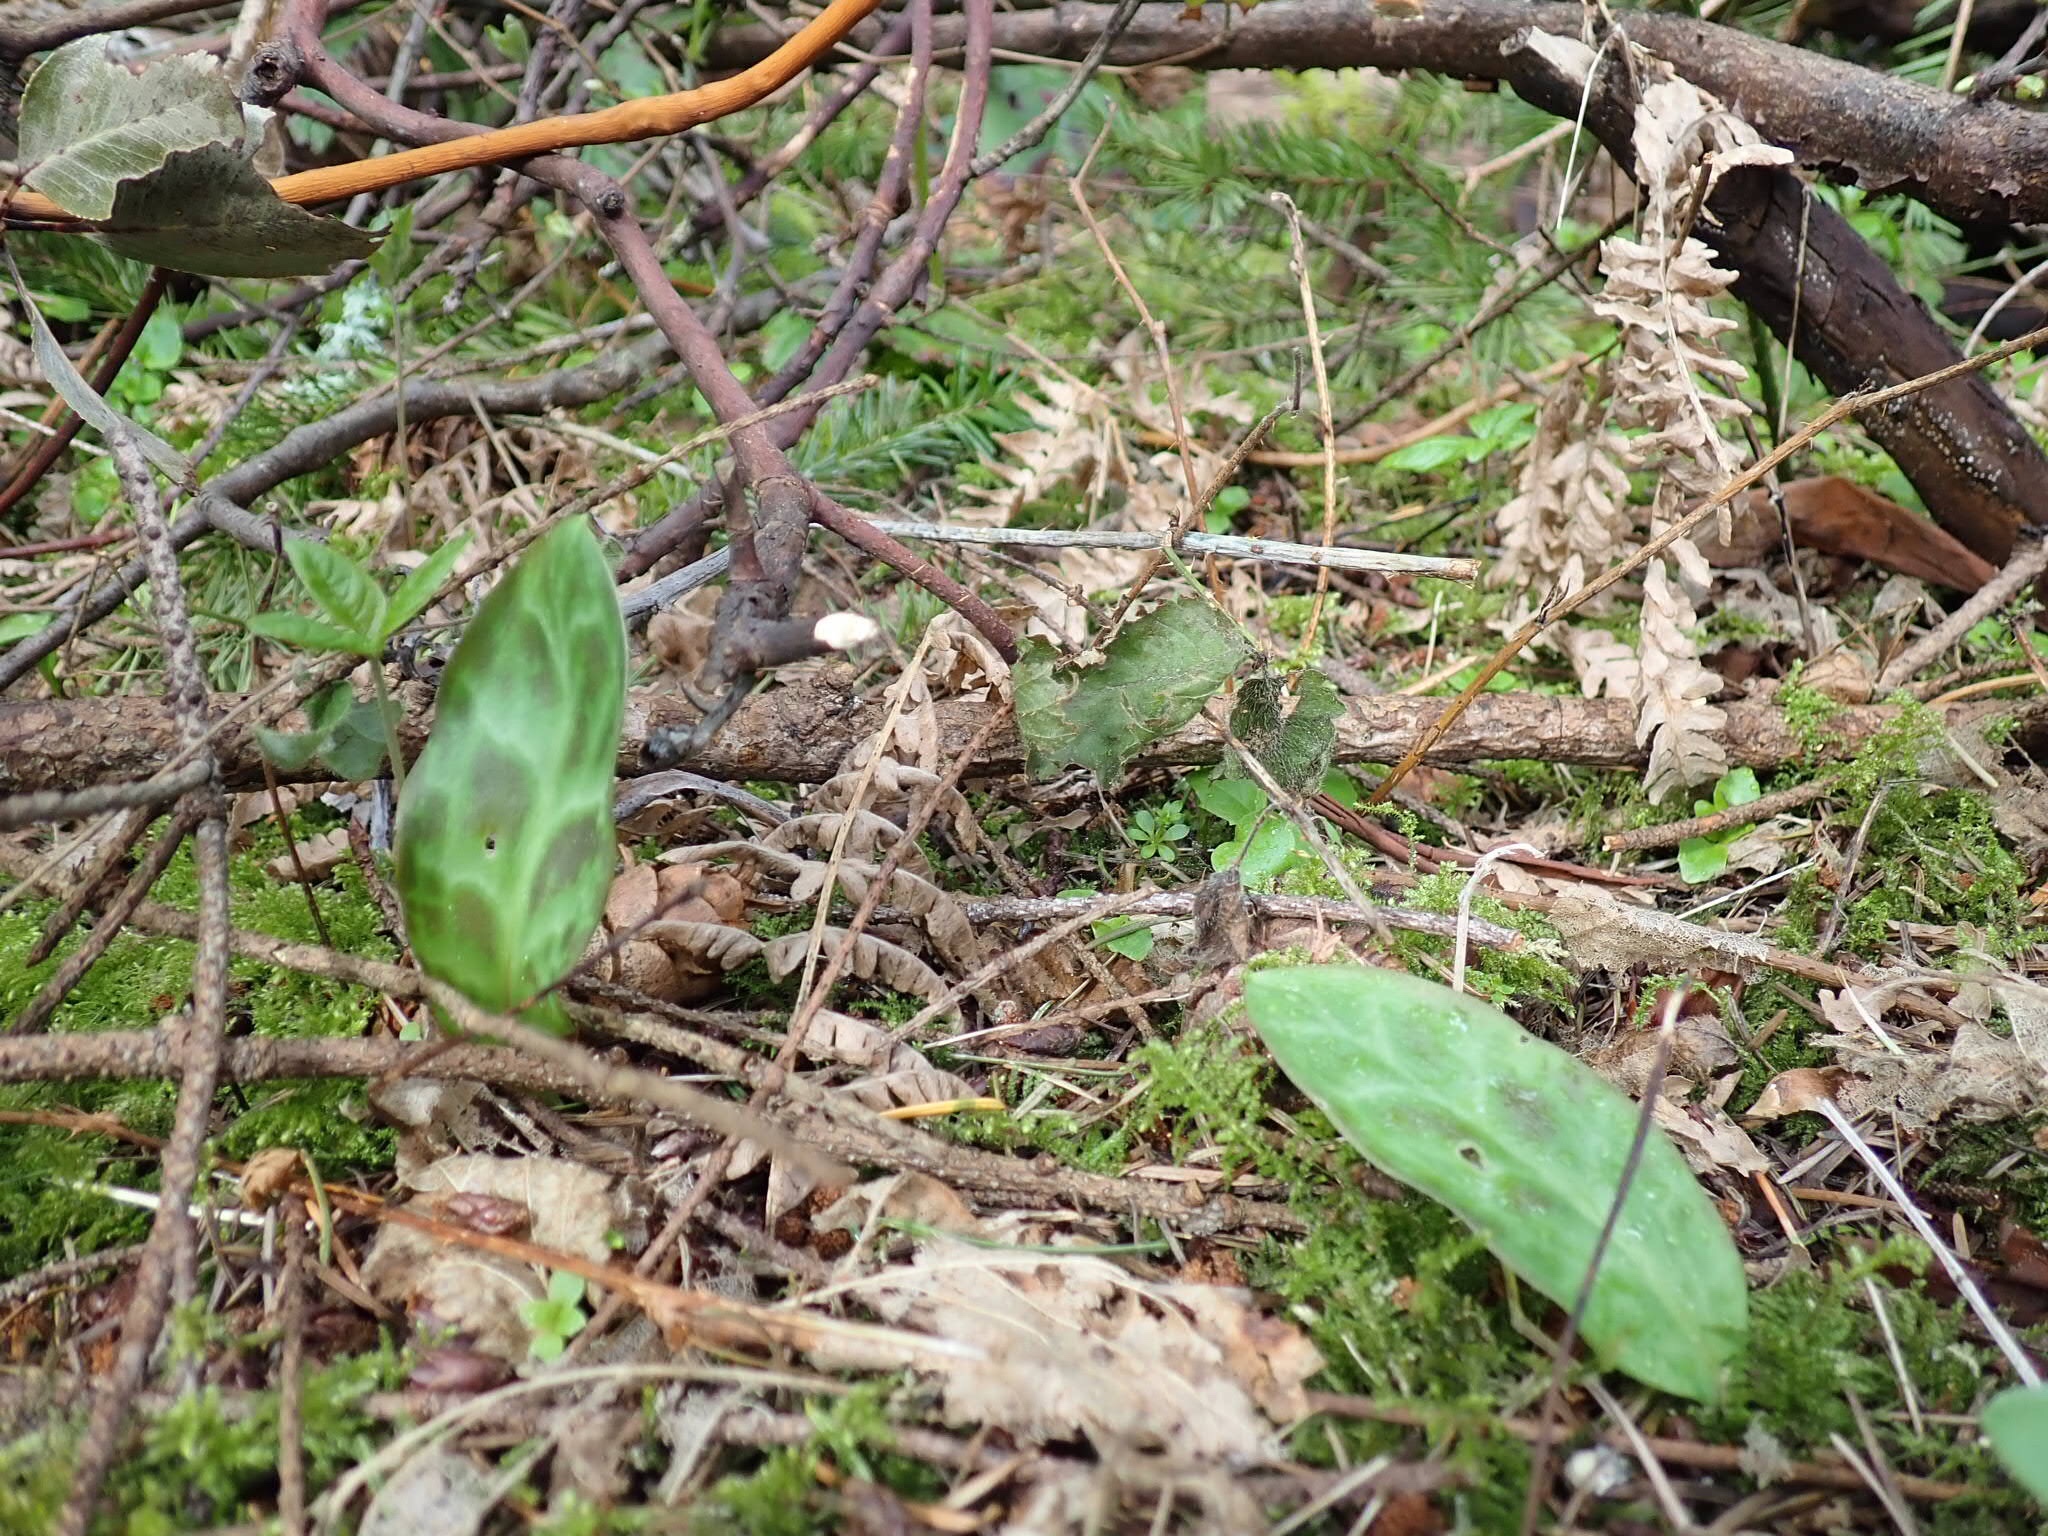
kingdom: Plantae
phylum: Tracheophyta
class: Liliopsida
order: Liliales
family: Liliaceae
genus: Erythronium
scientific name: Erythronium oregonum
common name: Giant adder's-tongue
